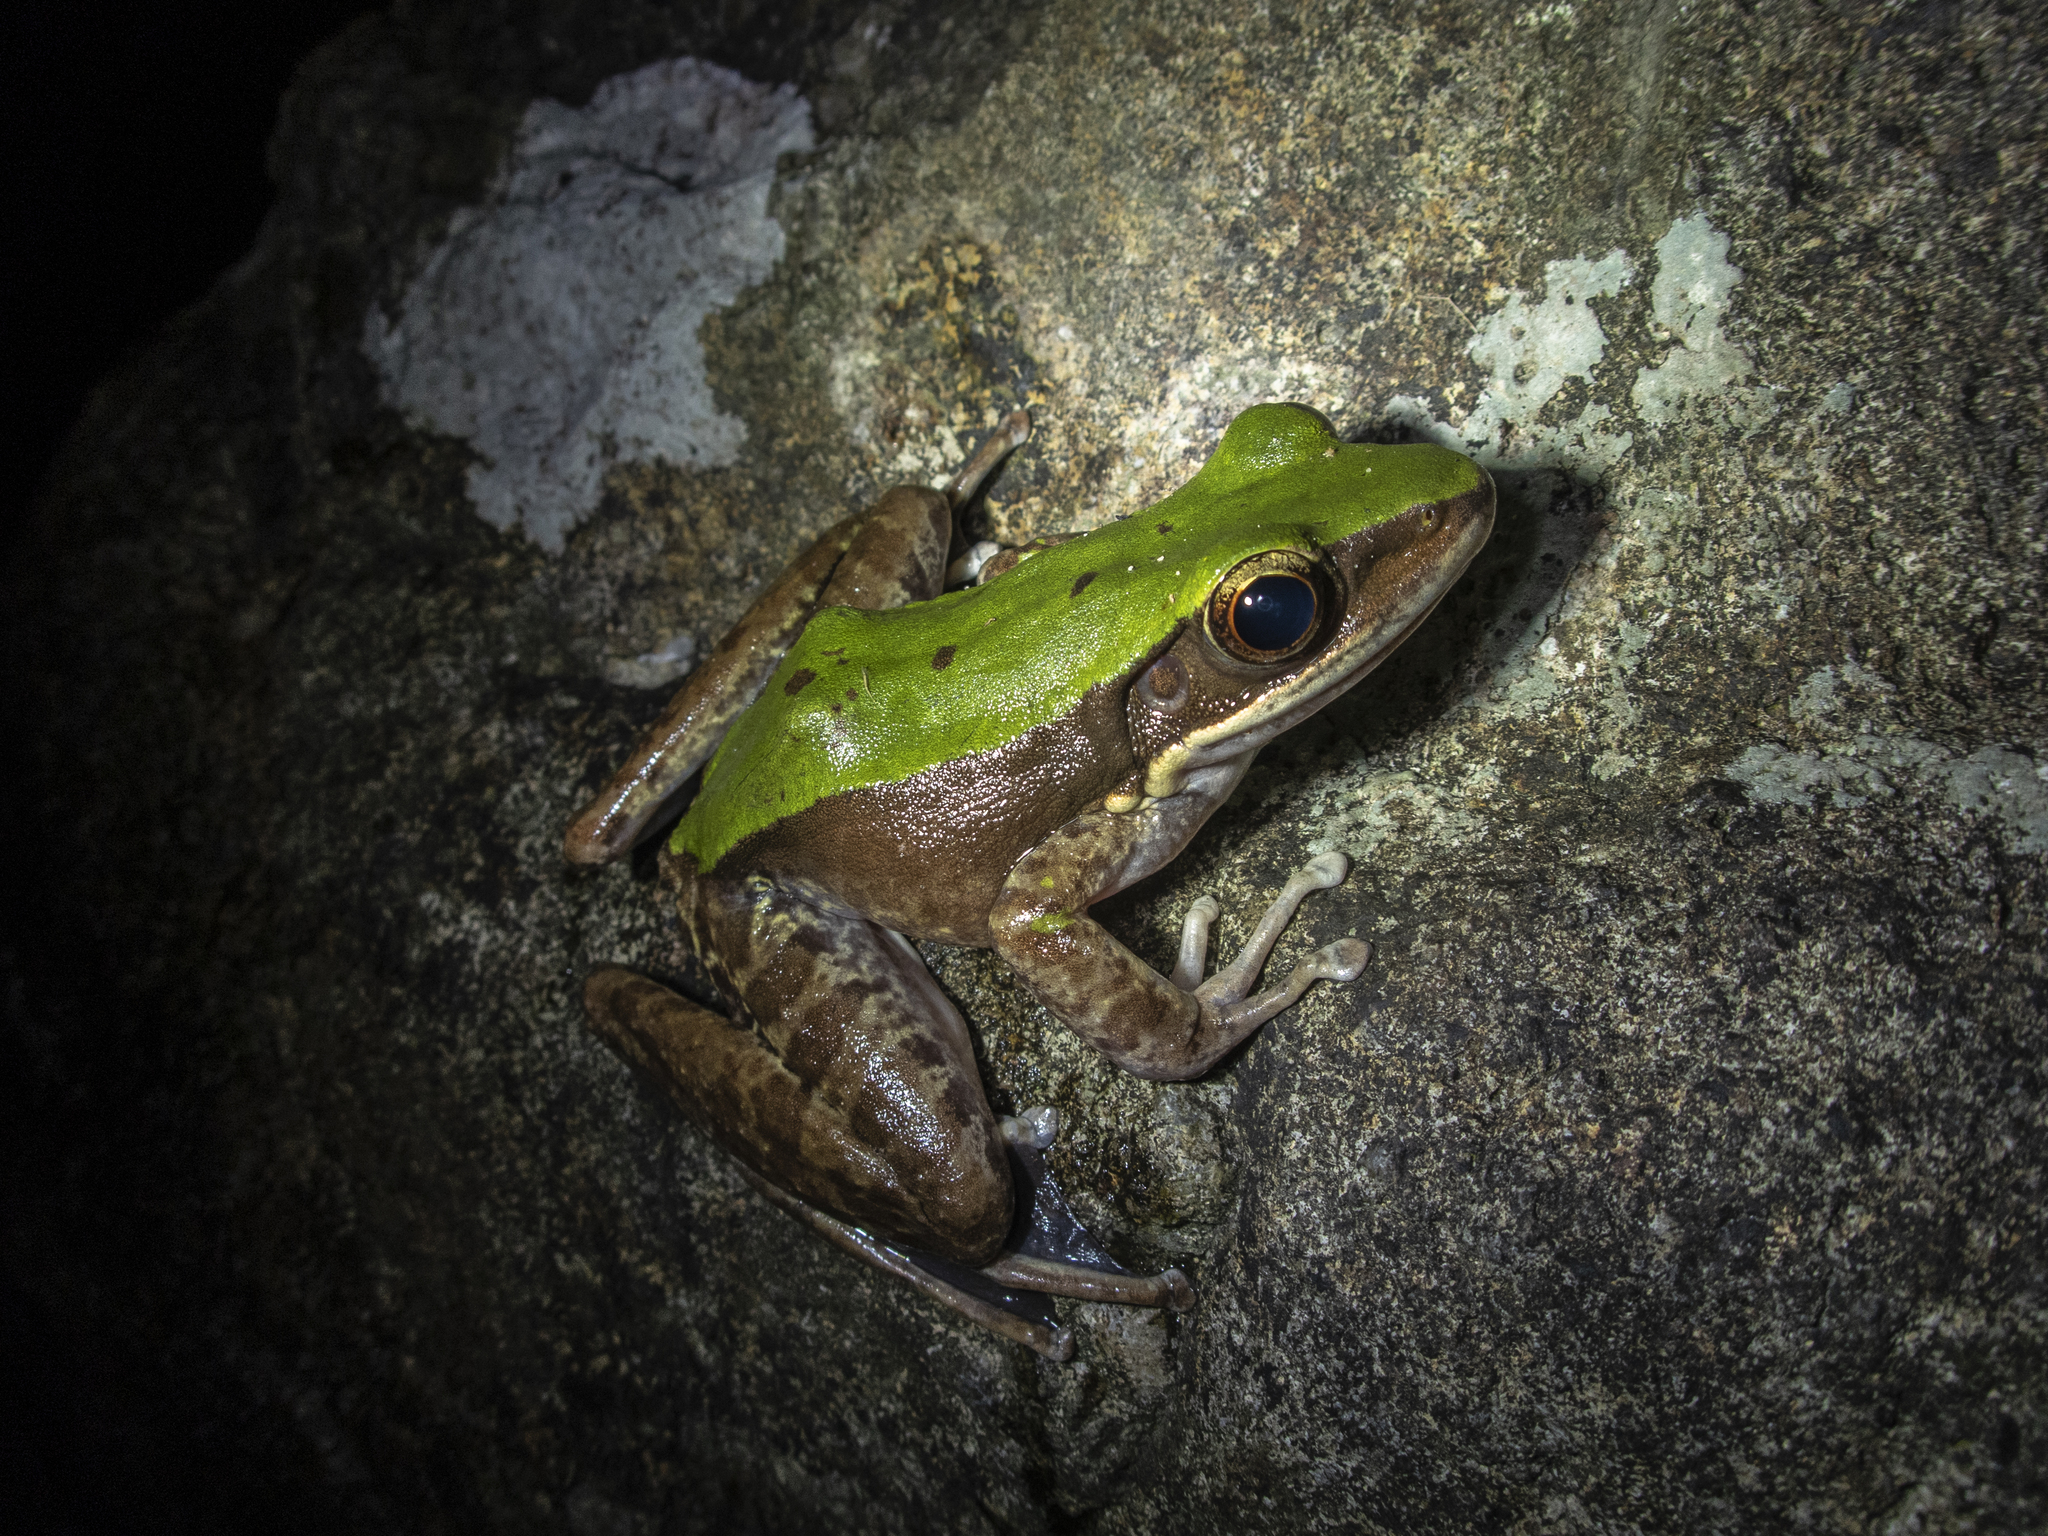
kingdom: Animalia
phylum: Chordata
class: Amphibia
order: Anura
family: Ranidae
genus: Odorrana
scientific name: Odorrana graminea
